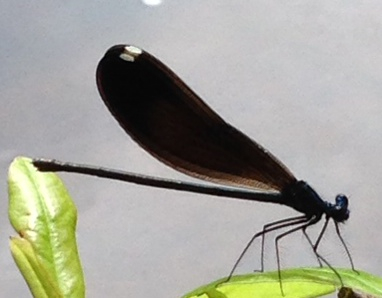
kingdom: Animalia
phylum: Arthropoda
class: Insecta
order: Odonata
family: Calopterygidae
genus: Calopteryx
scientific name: Calopteryx maculata
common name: Ebony jewelwing
